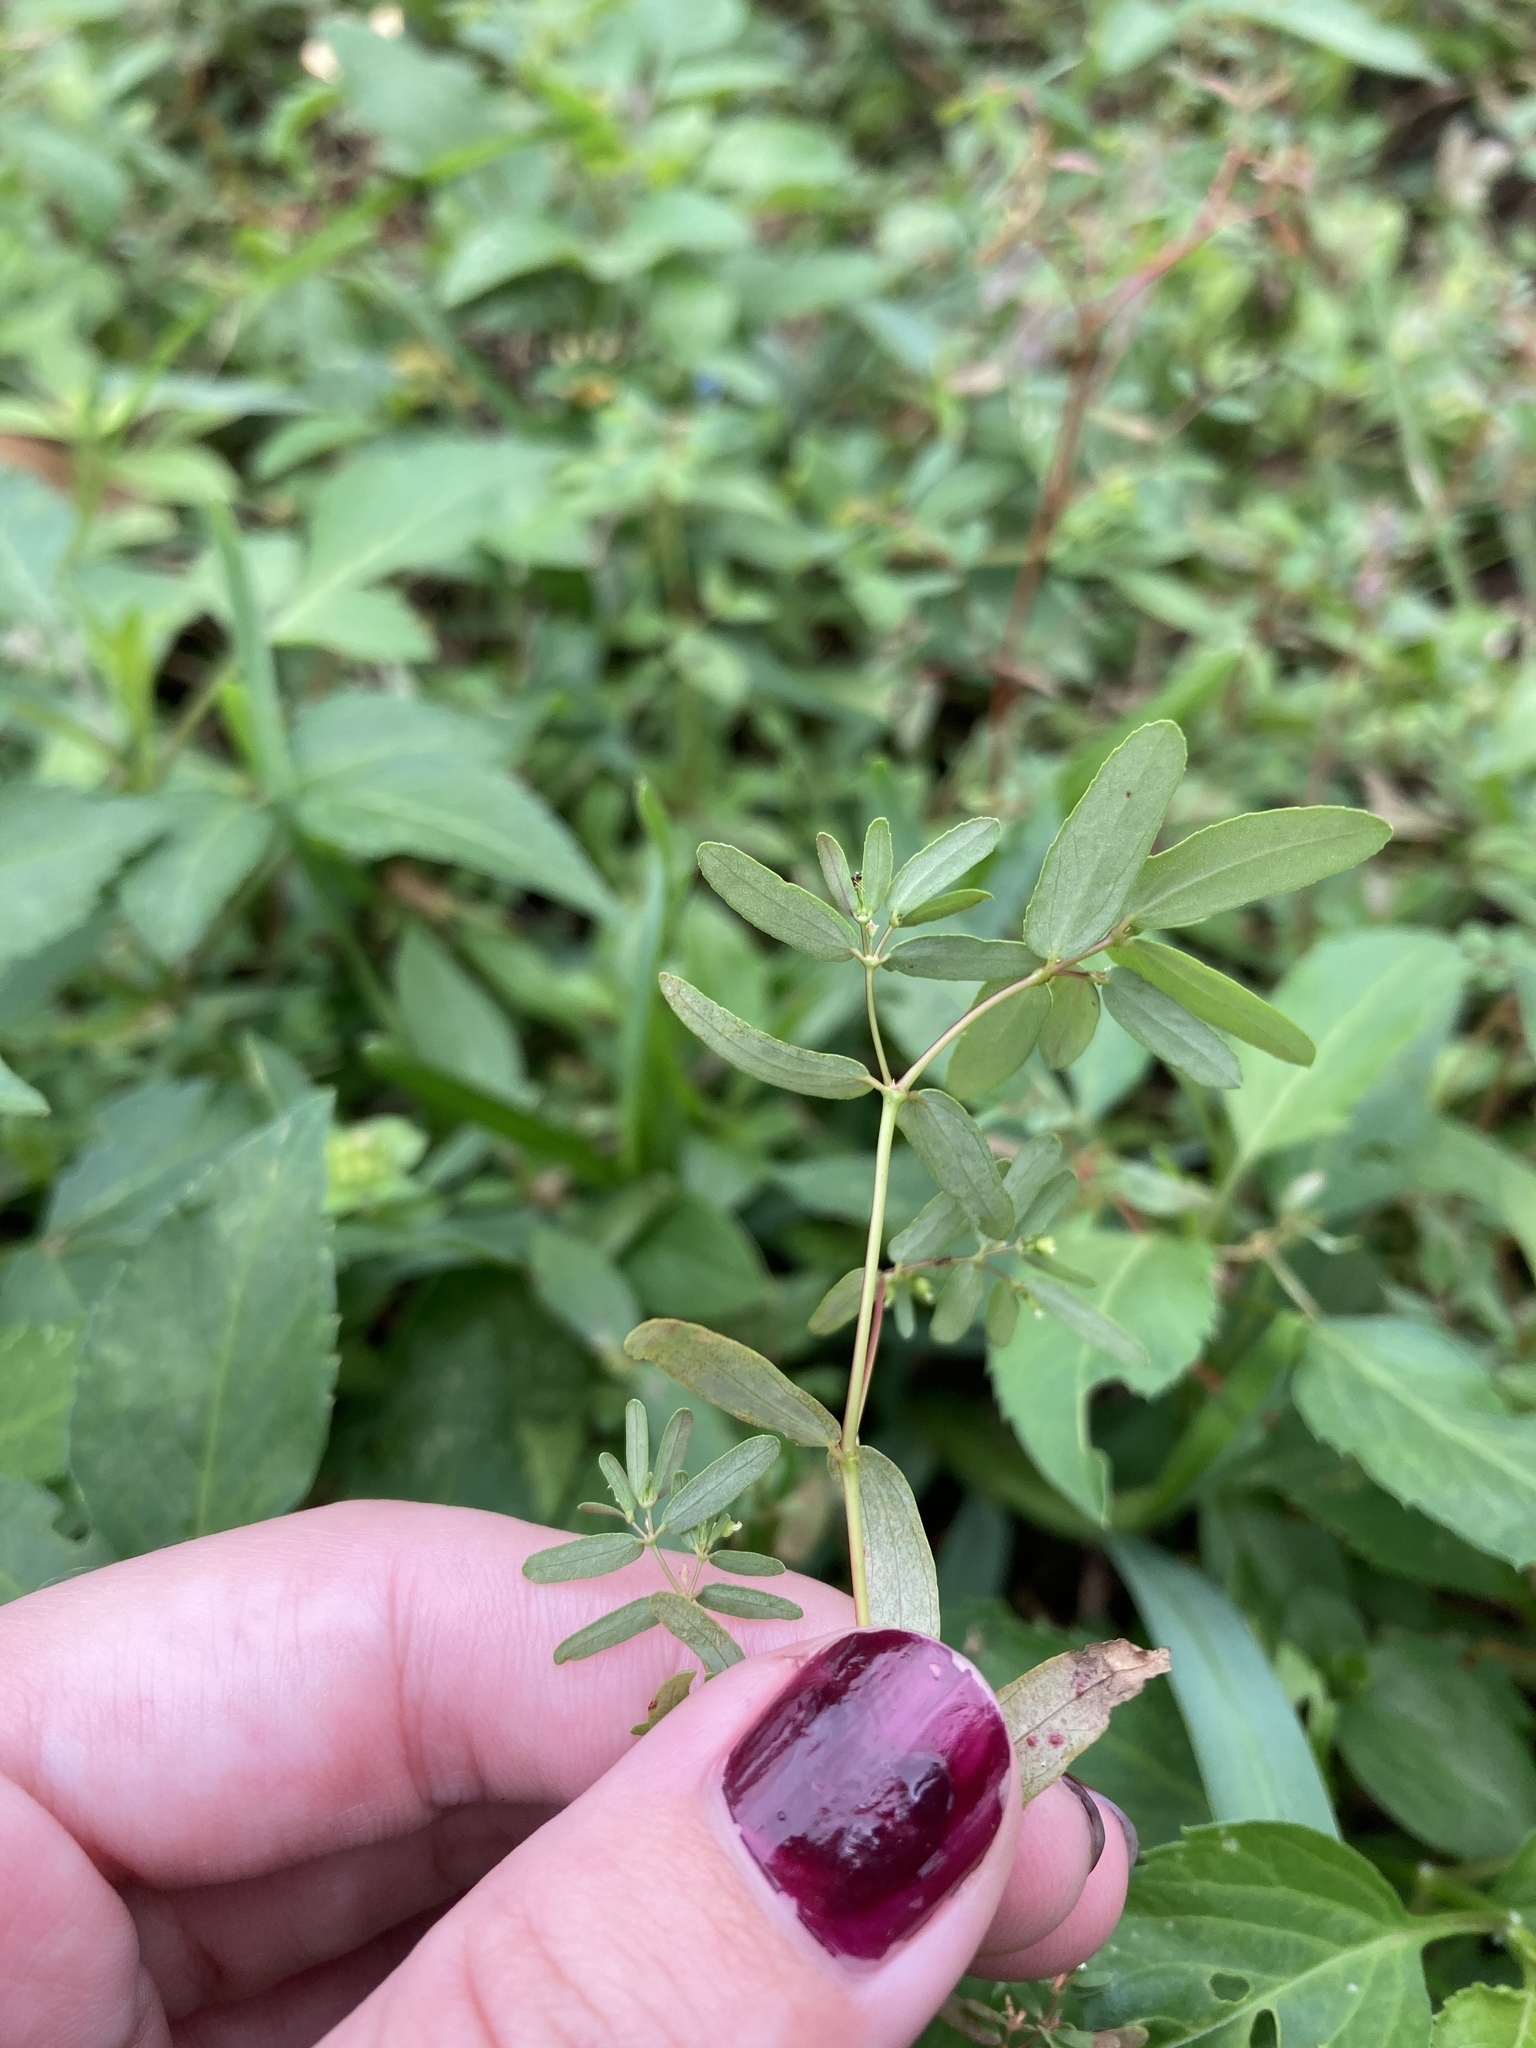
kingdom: Plantae
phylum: Tracheophyta
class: Magnoliopsida
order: Malpighiales
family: Euphorbiaceae
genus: Euphorbia
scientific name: Euphorbia hyssopifolia
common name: Hyssopleaf sandmat
